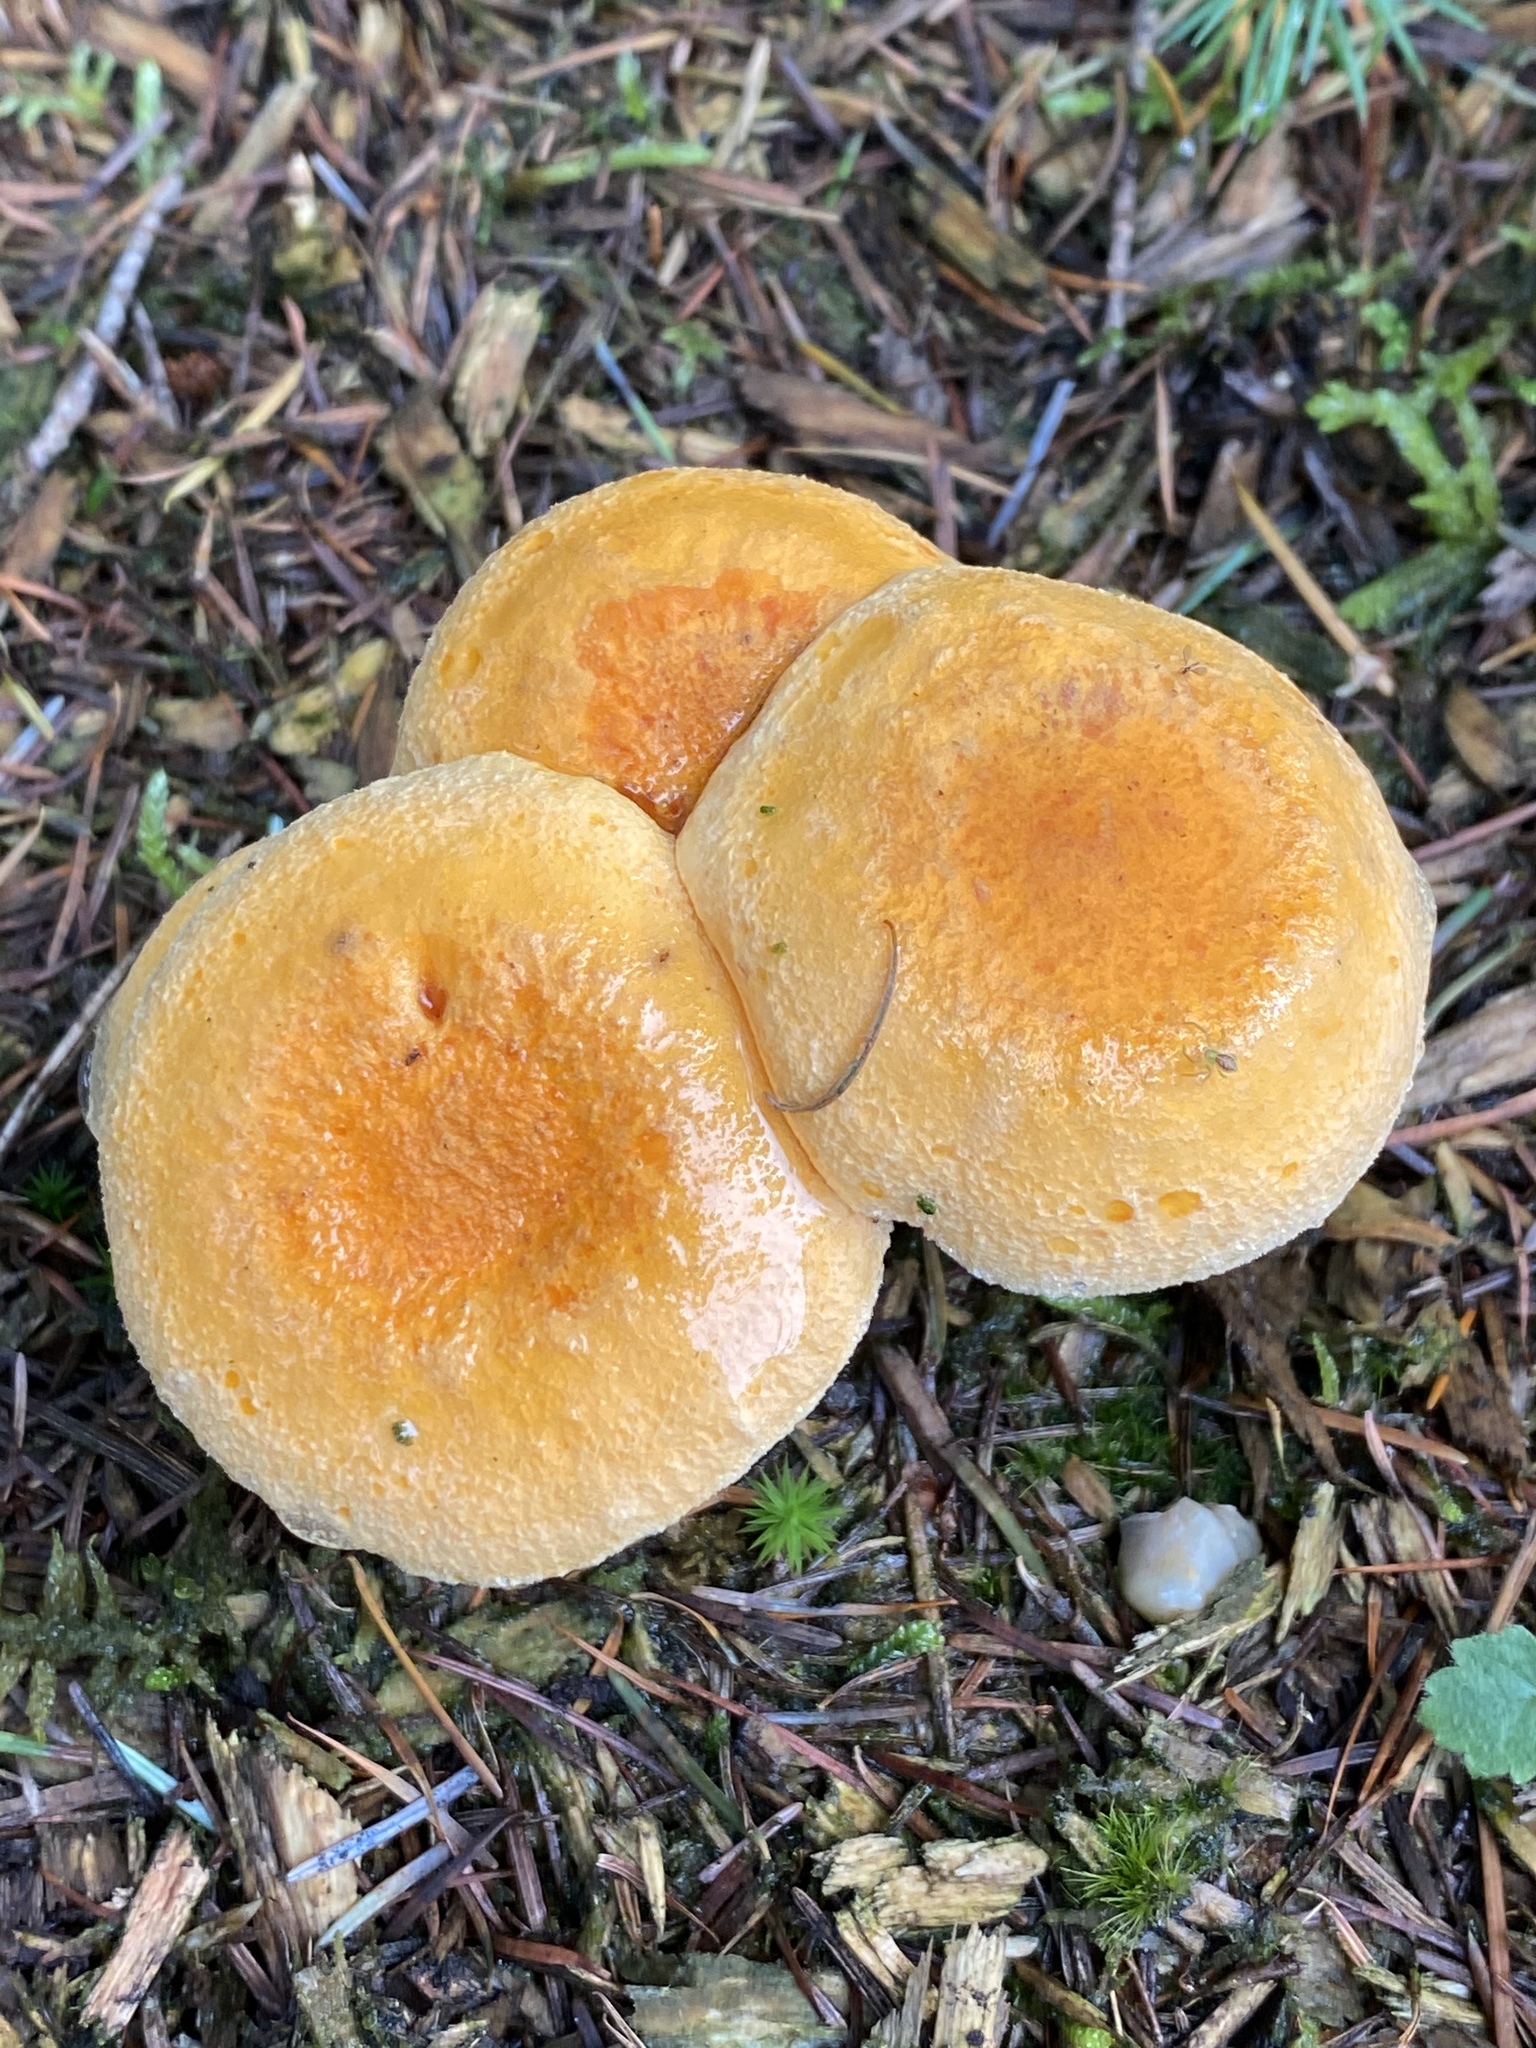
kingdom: Fungi
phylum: Basidiomycota
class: Agaricomycetes
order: Boletales
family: Hygrophoropsidaceae
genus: Hygrophoropsis
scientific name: Hygrophoropsis aurantiaca
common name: False chanterelle
